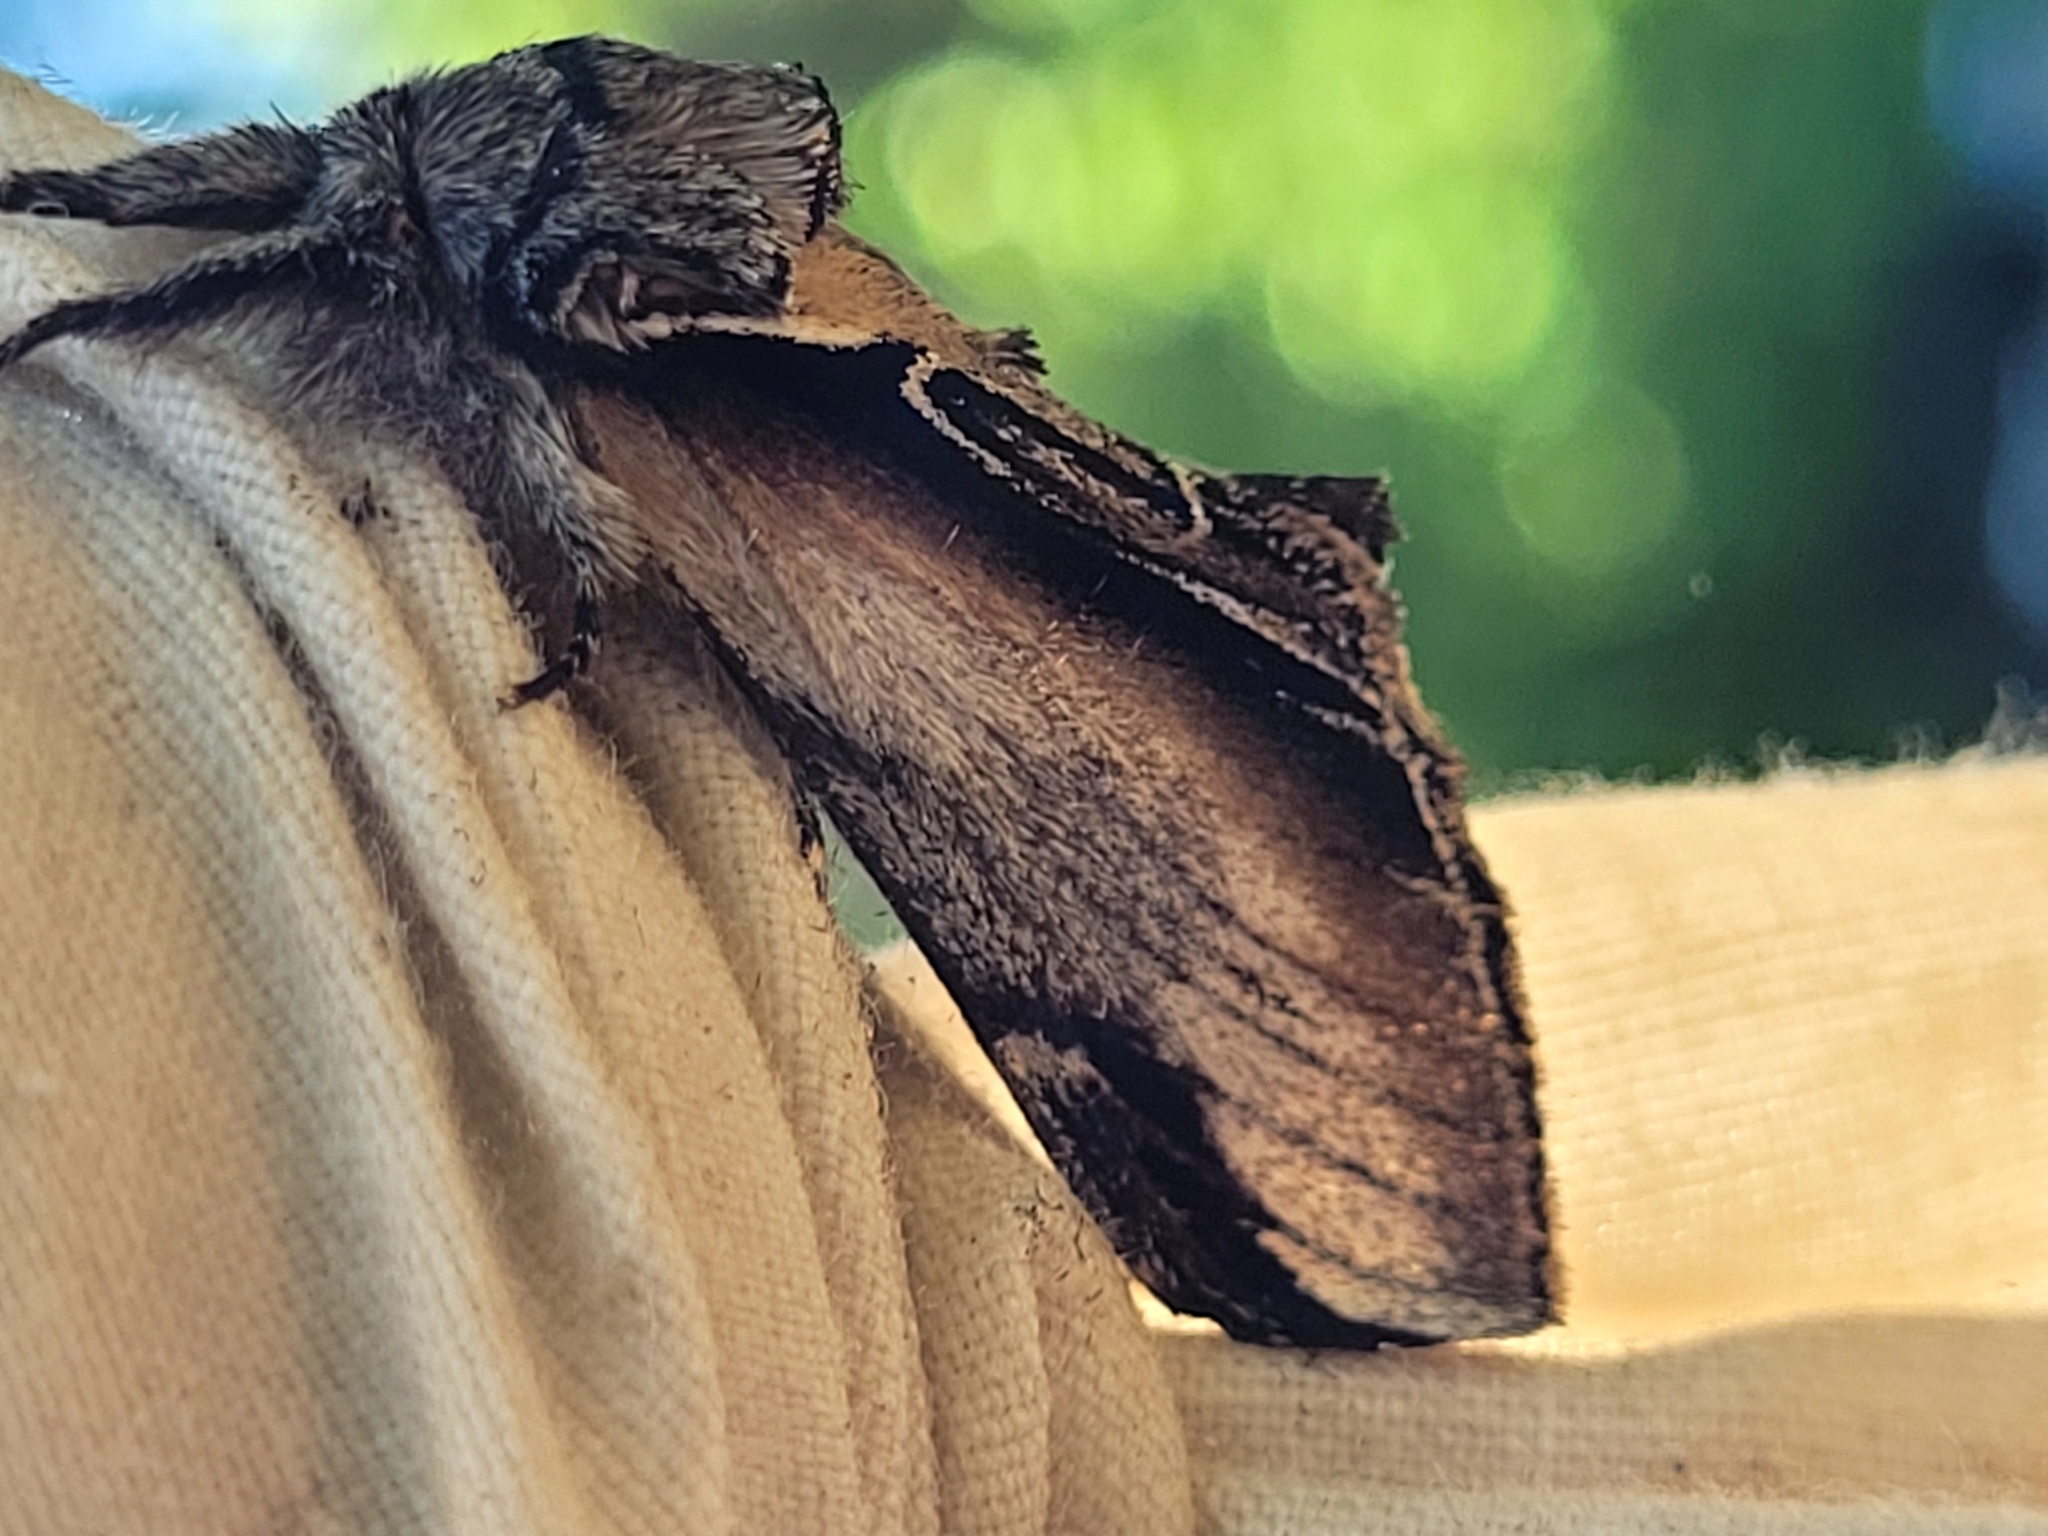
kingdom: Animalia
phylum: Arthropoda
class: Insecta
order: Lepidoptera
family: Notodontidae
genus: Pheosia
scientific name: Pheosia rimosa
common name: Black-rimmed prominent
